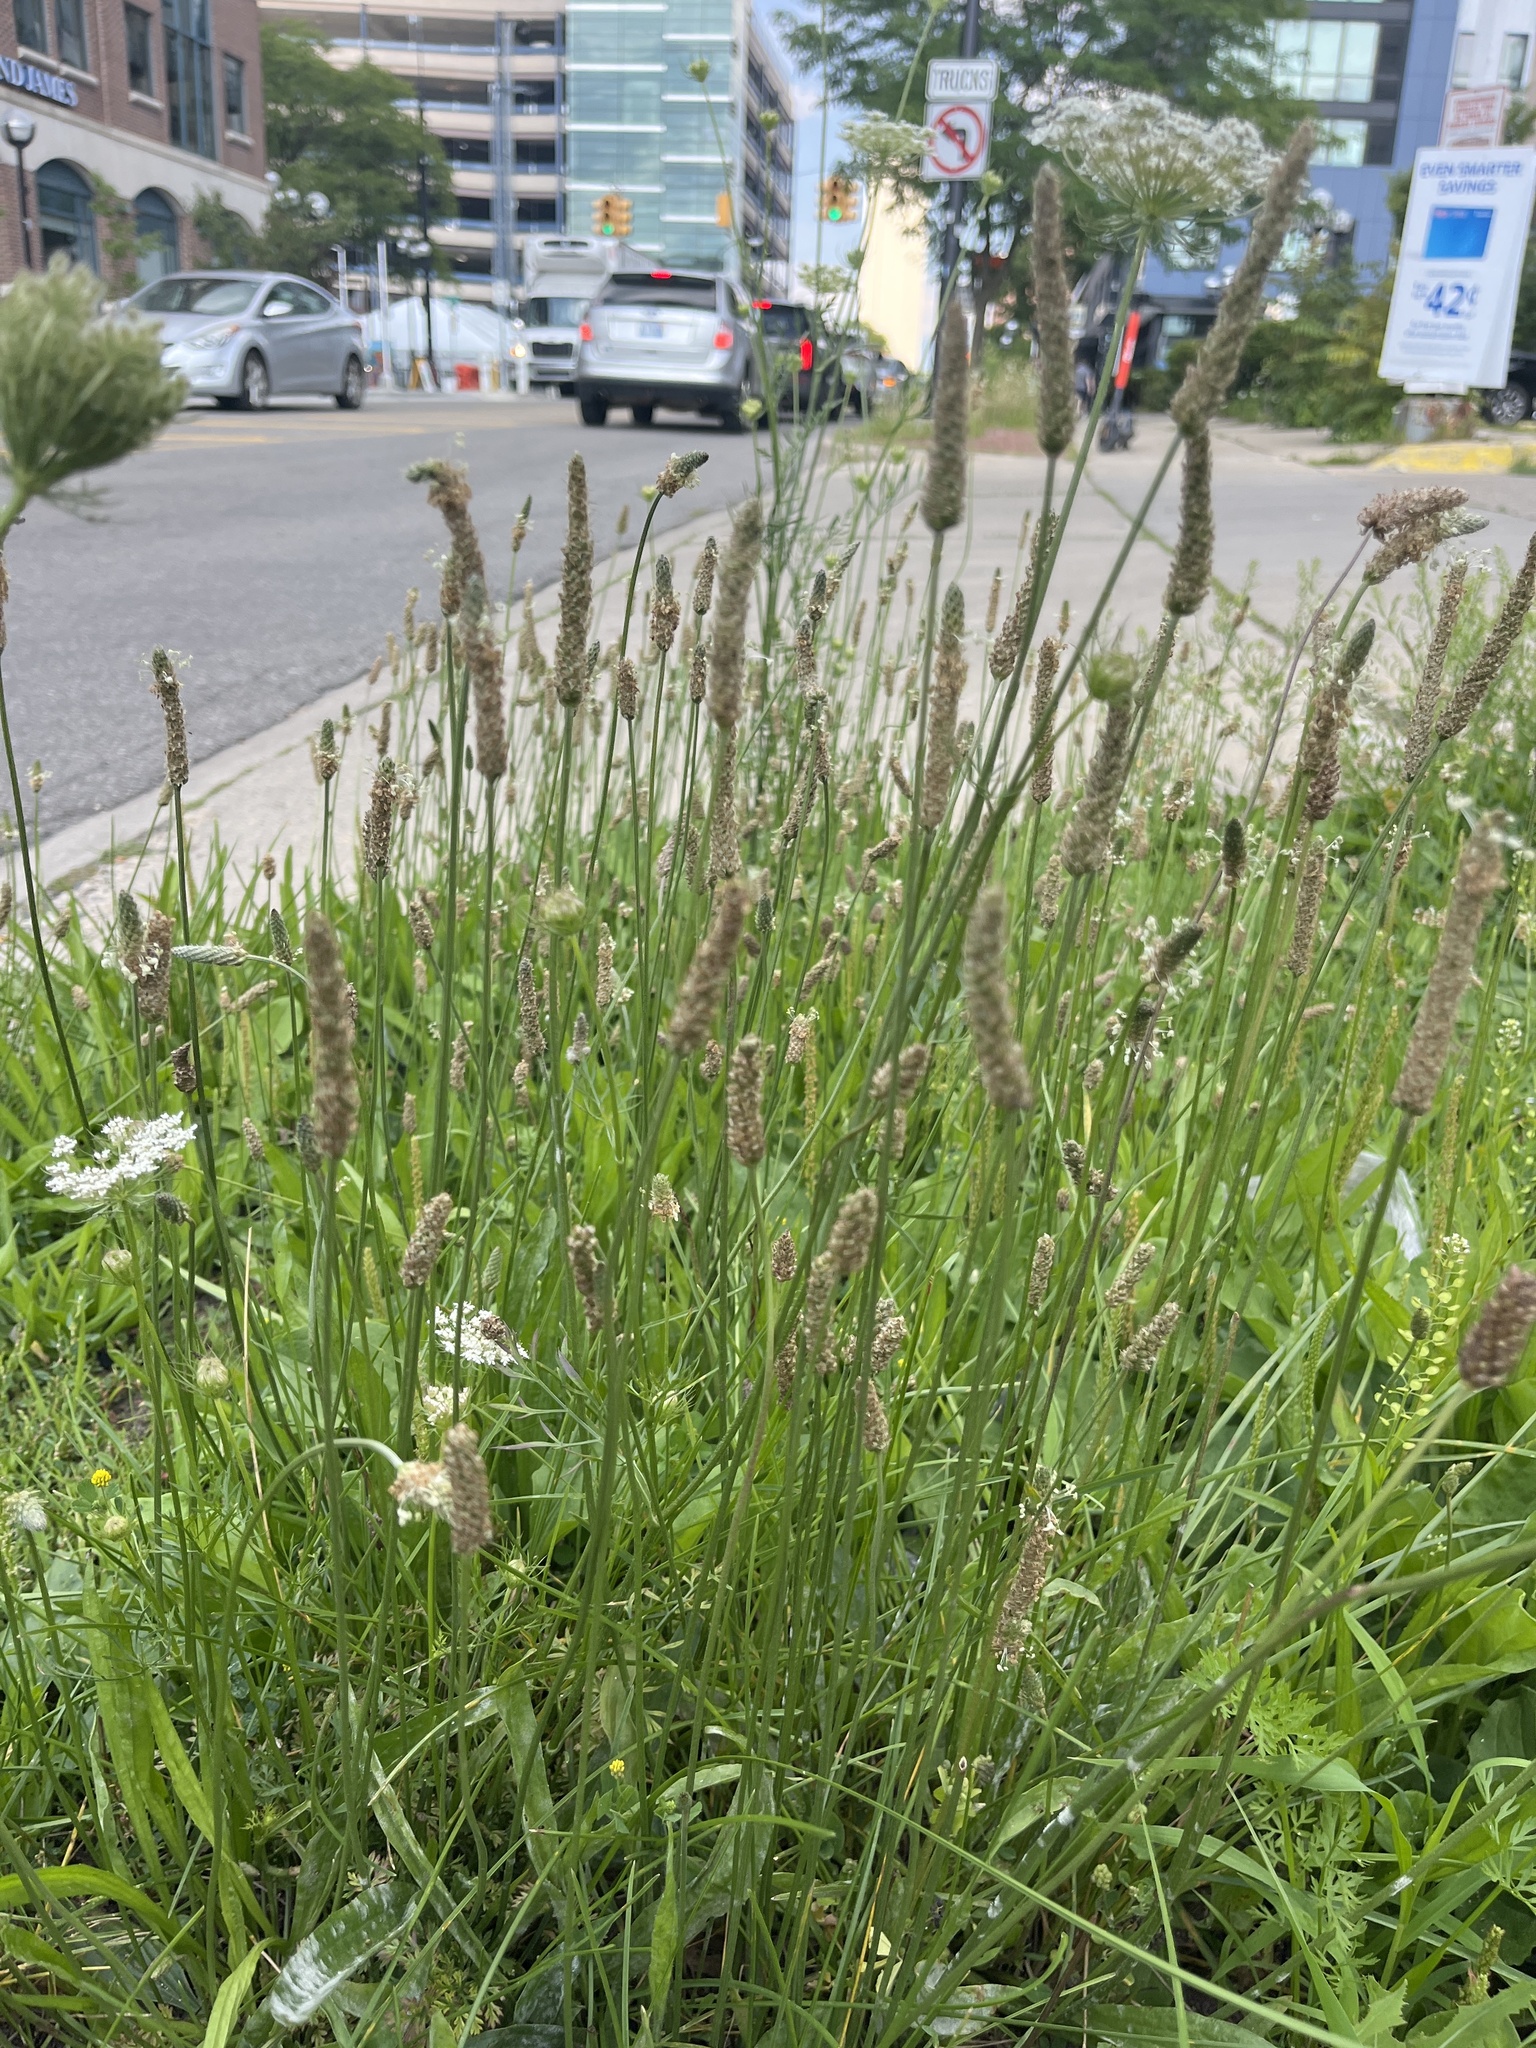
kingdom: Plantae
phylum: Tracheophyta
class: Magnoliopsida
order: Lamiales
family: Plantaginaceae
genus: Plantago
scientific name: Plantago lanceolata
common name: Ribwort plantain
